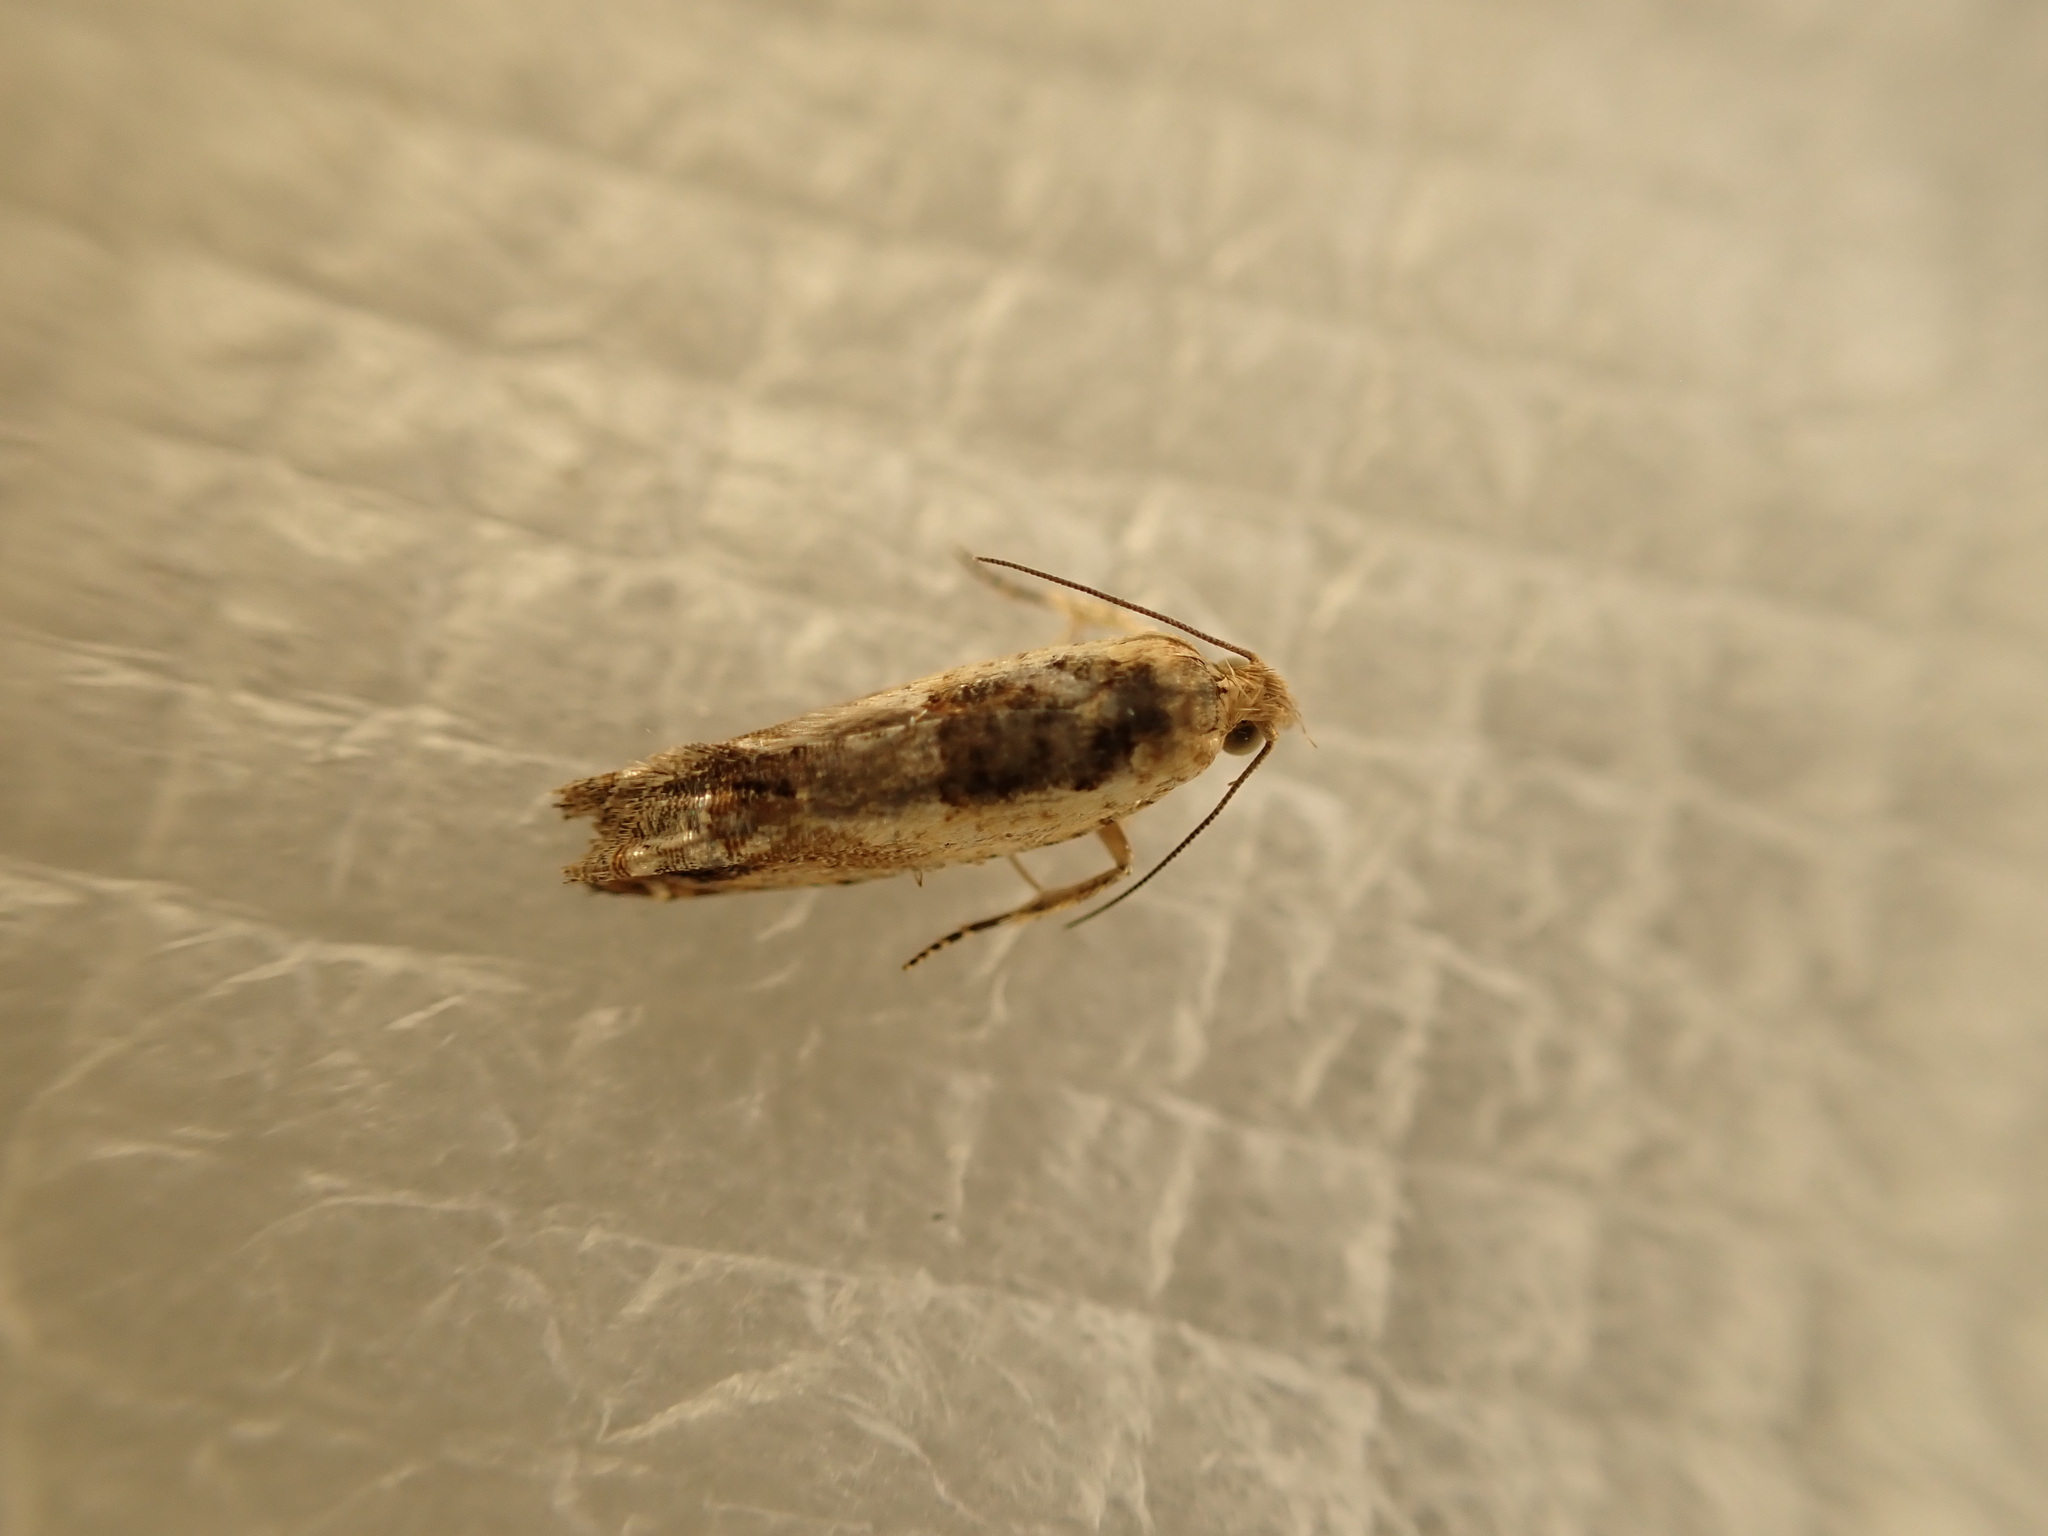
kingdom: Animalia
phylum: Arthropoda
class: Insecta
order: Lepidoptera
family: Tortricidae
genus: Crocidosema
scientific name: Crocidosema plebejana
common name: Southern bell
